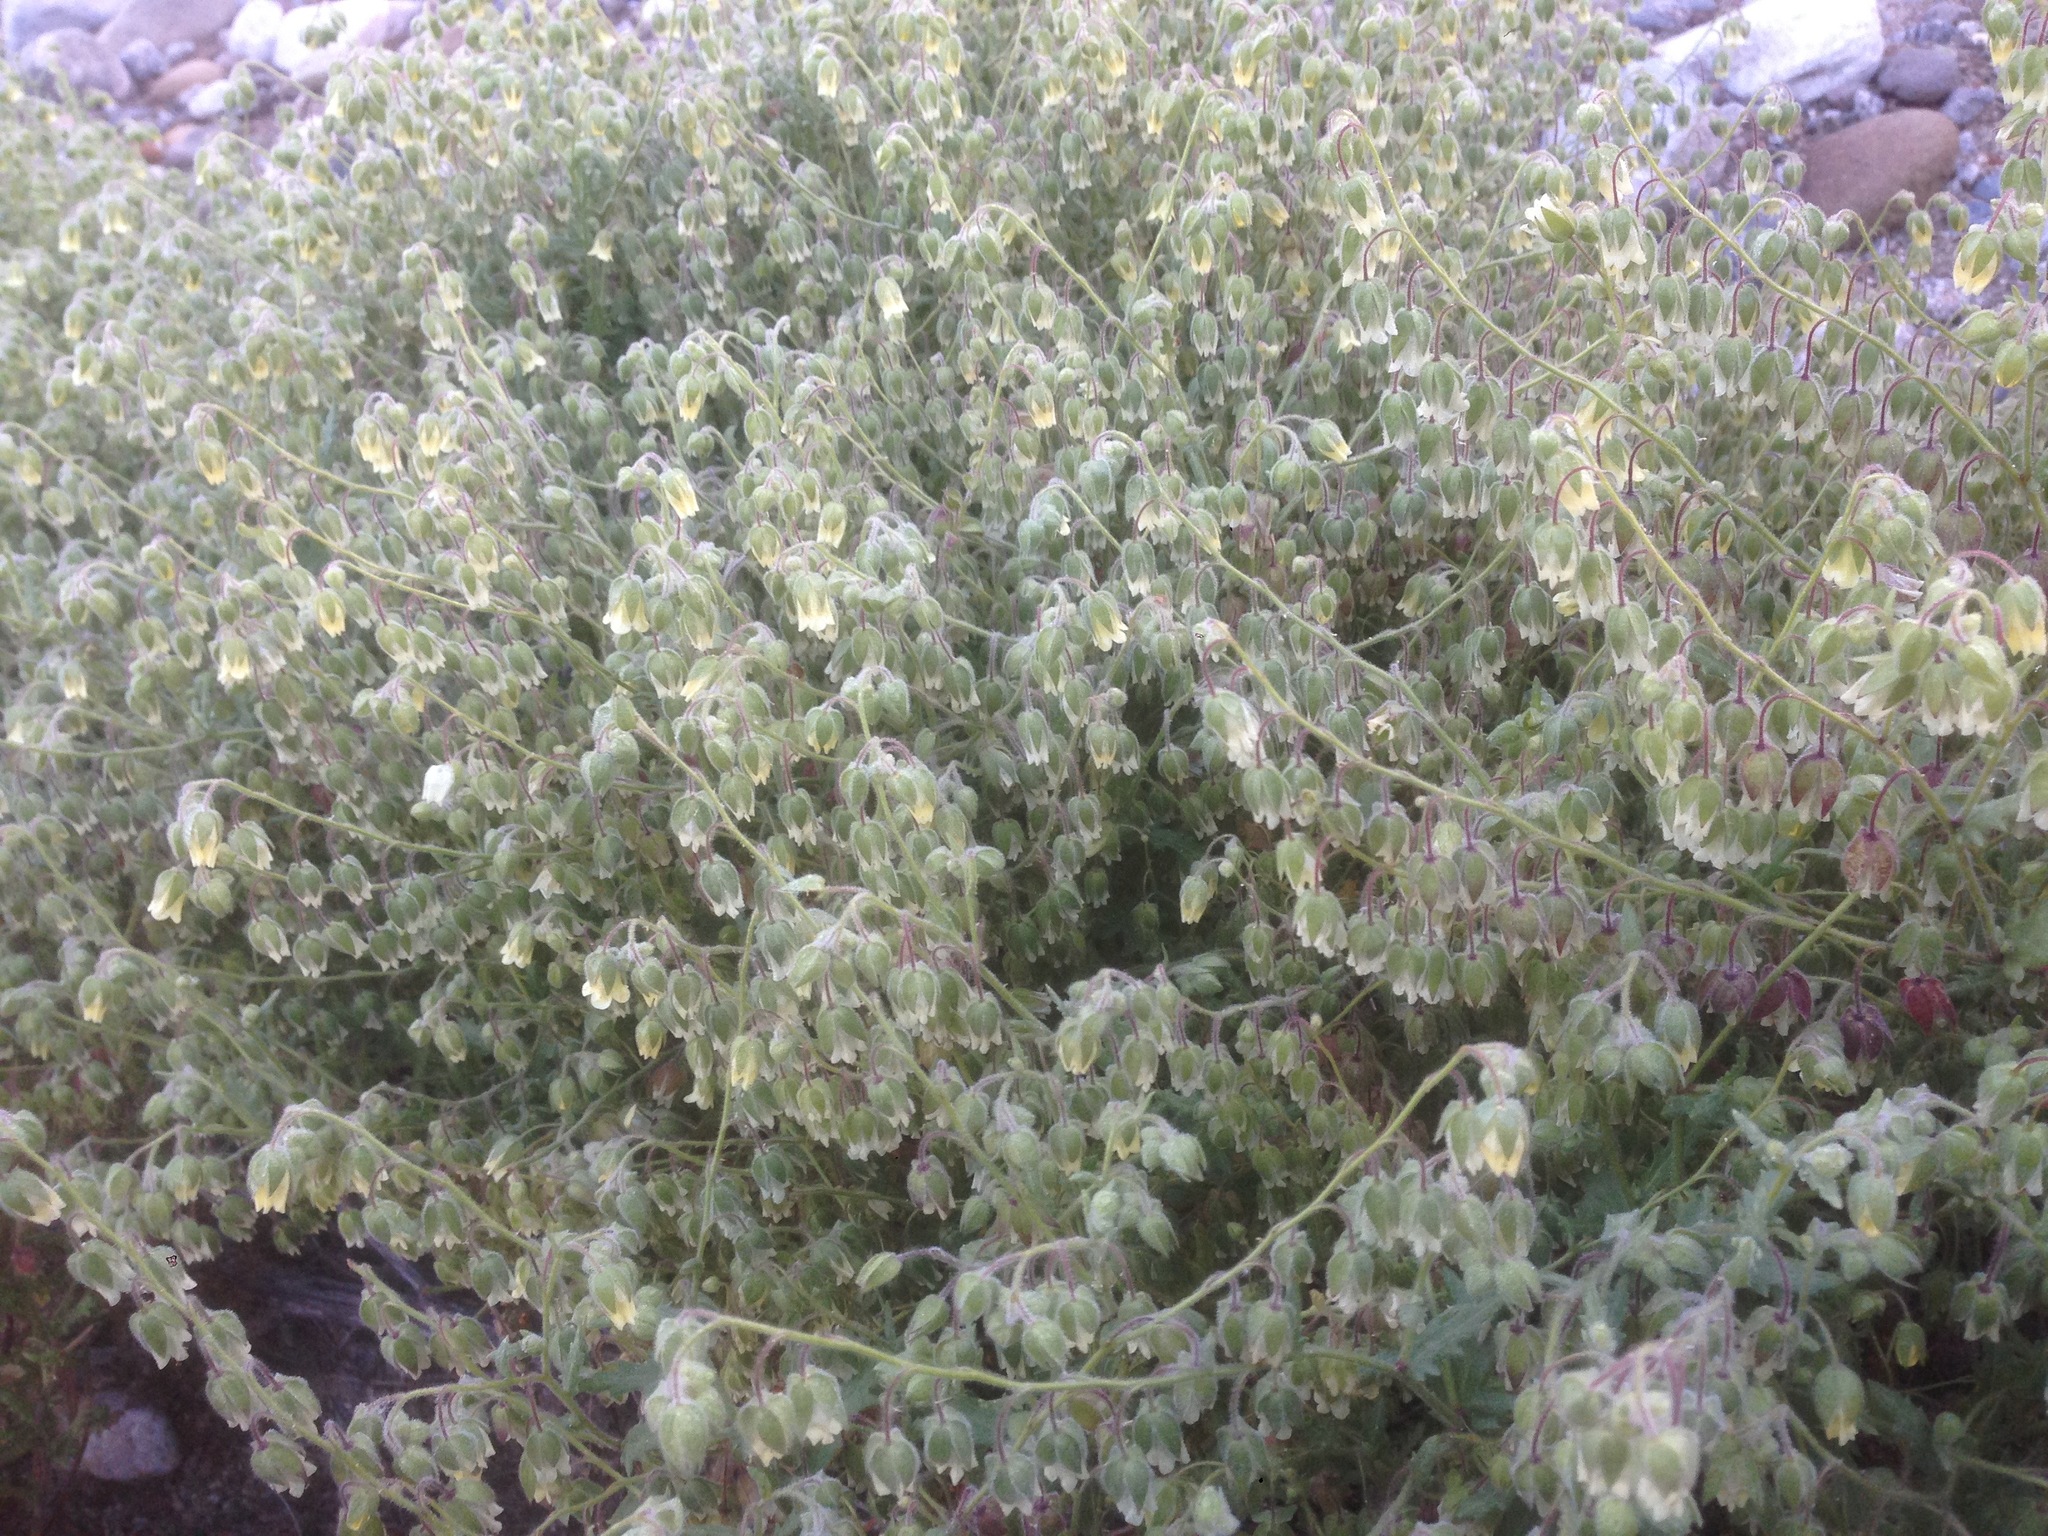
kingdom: Plantae
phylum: Tracheophyta
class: Magnoliopsida
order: Boraginales
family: Hydrophyllaceae
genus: Emmenanthe
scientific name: Emmenanthe penduliflora
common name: Whispering-bells
